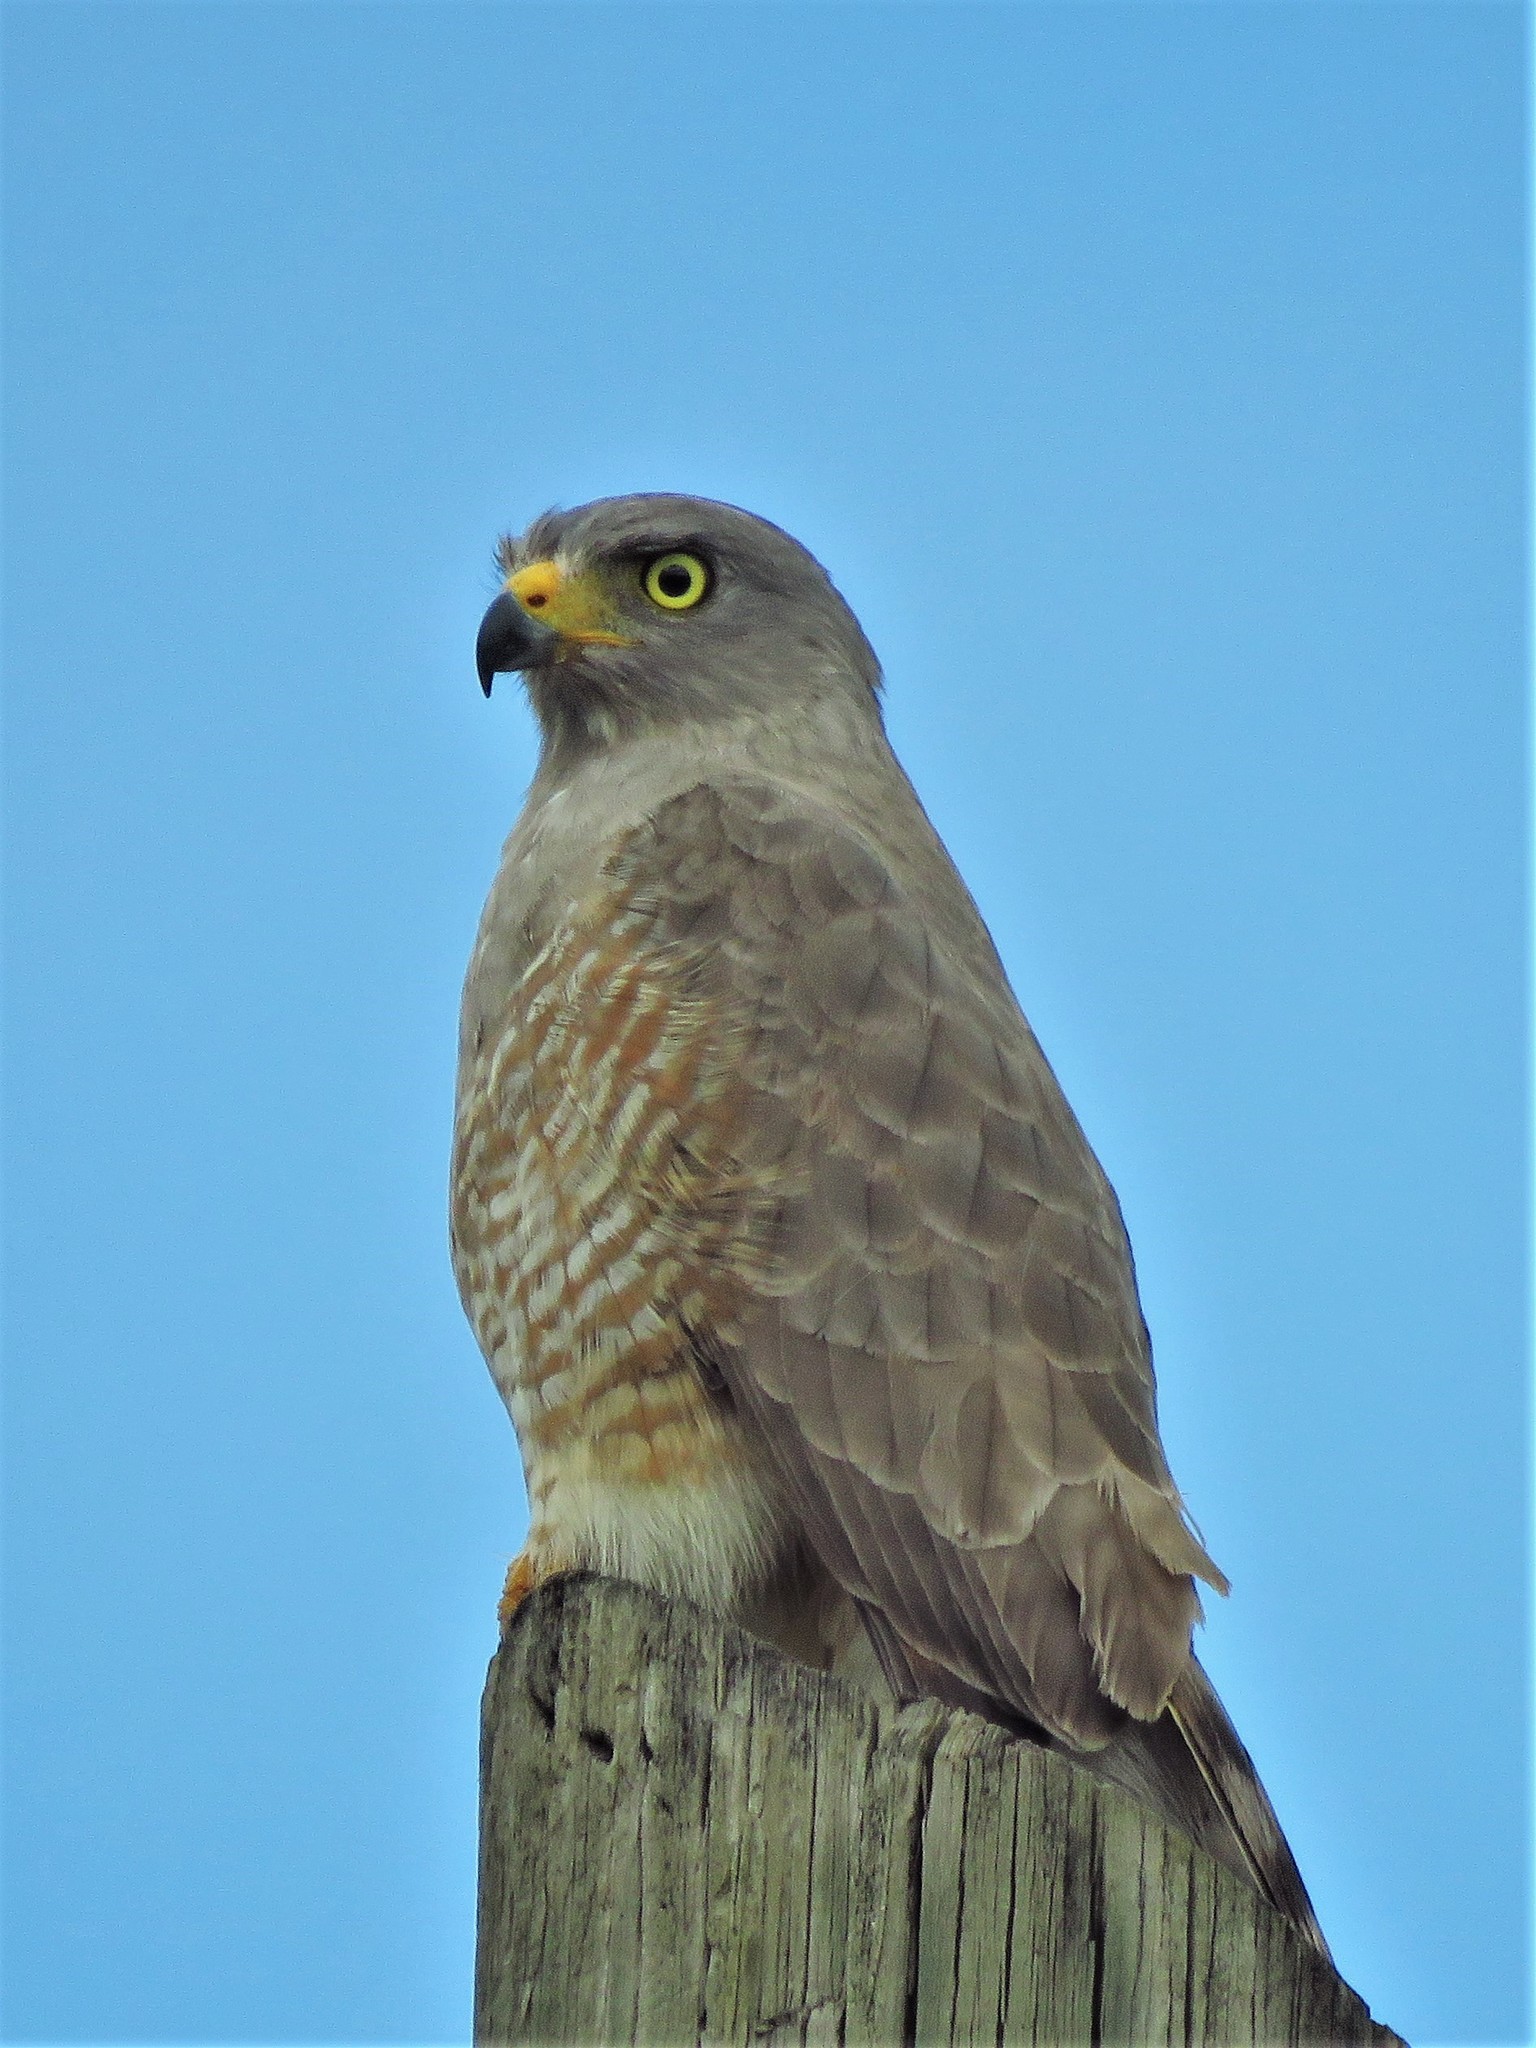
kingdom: Animalia
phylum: Chordata
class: Aves
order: Accipitriformes
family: Accipitridae
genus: Rupornis
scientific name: Rupornis magnirostris
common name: Roadside hawk
